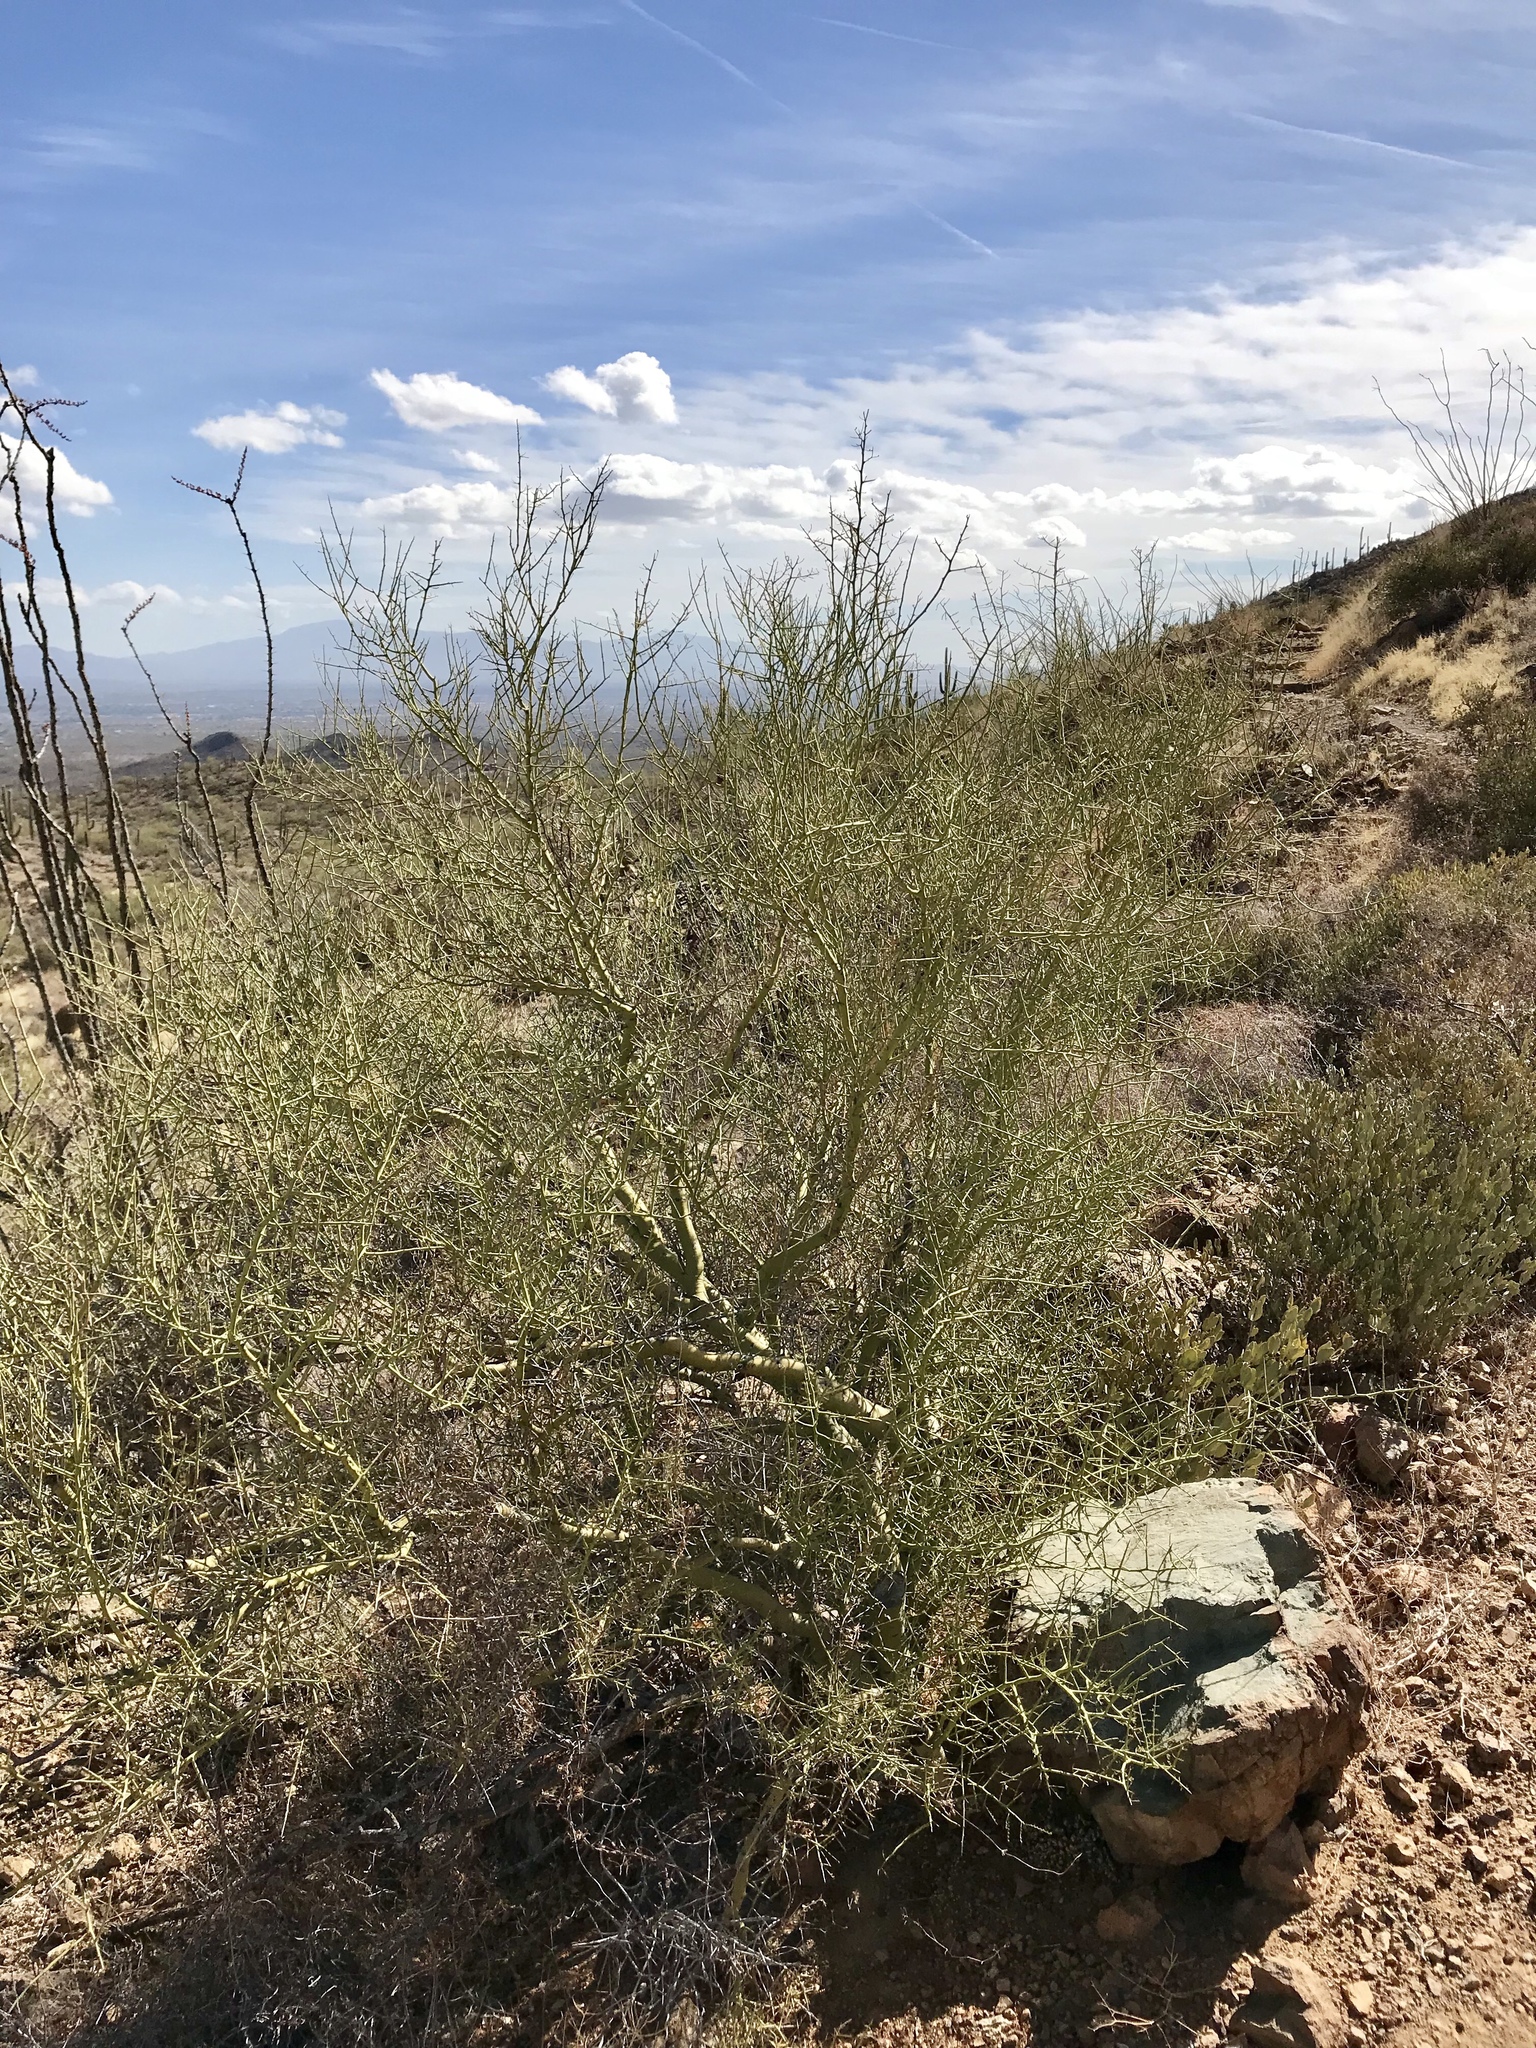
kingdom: Plantae
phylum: Tracheophyta
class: Magnoliopsida
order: Fabales
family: Fabaceae
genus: Parkinsonia
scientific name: Parkinsonia microphylla
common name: Yellow paloverde
